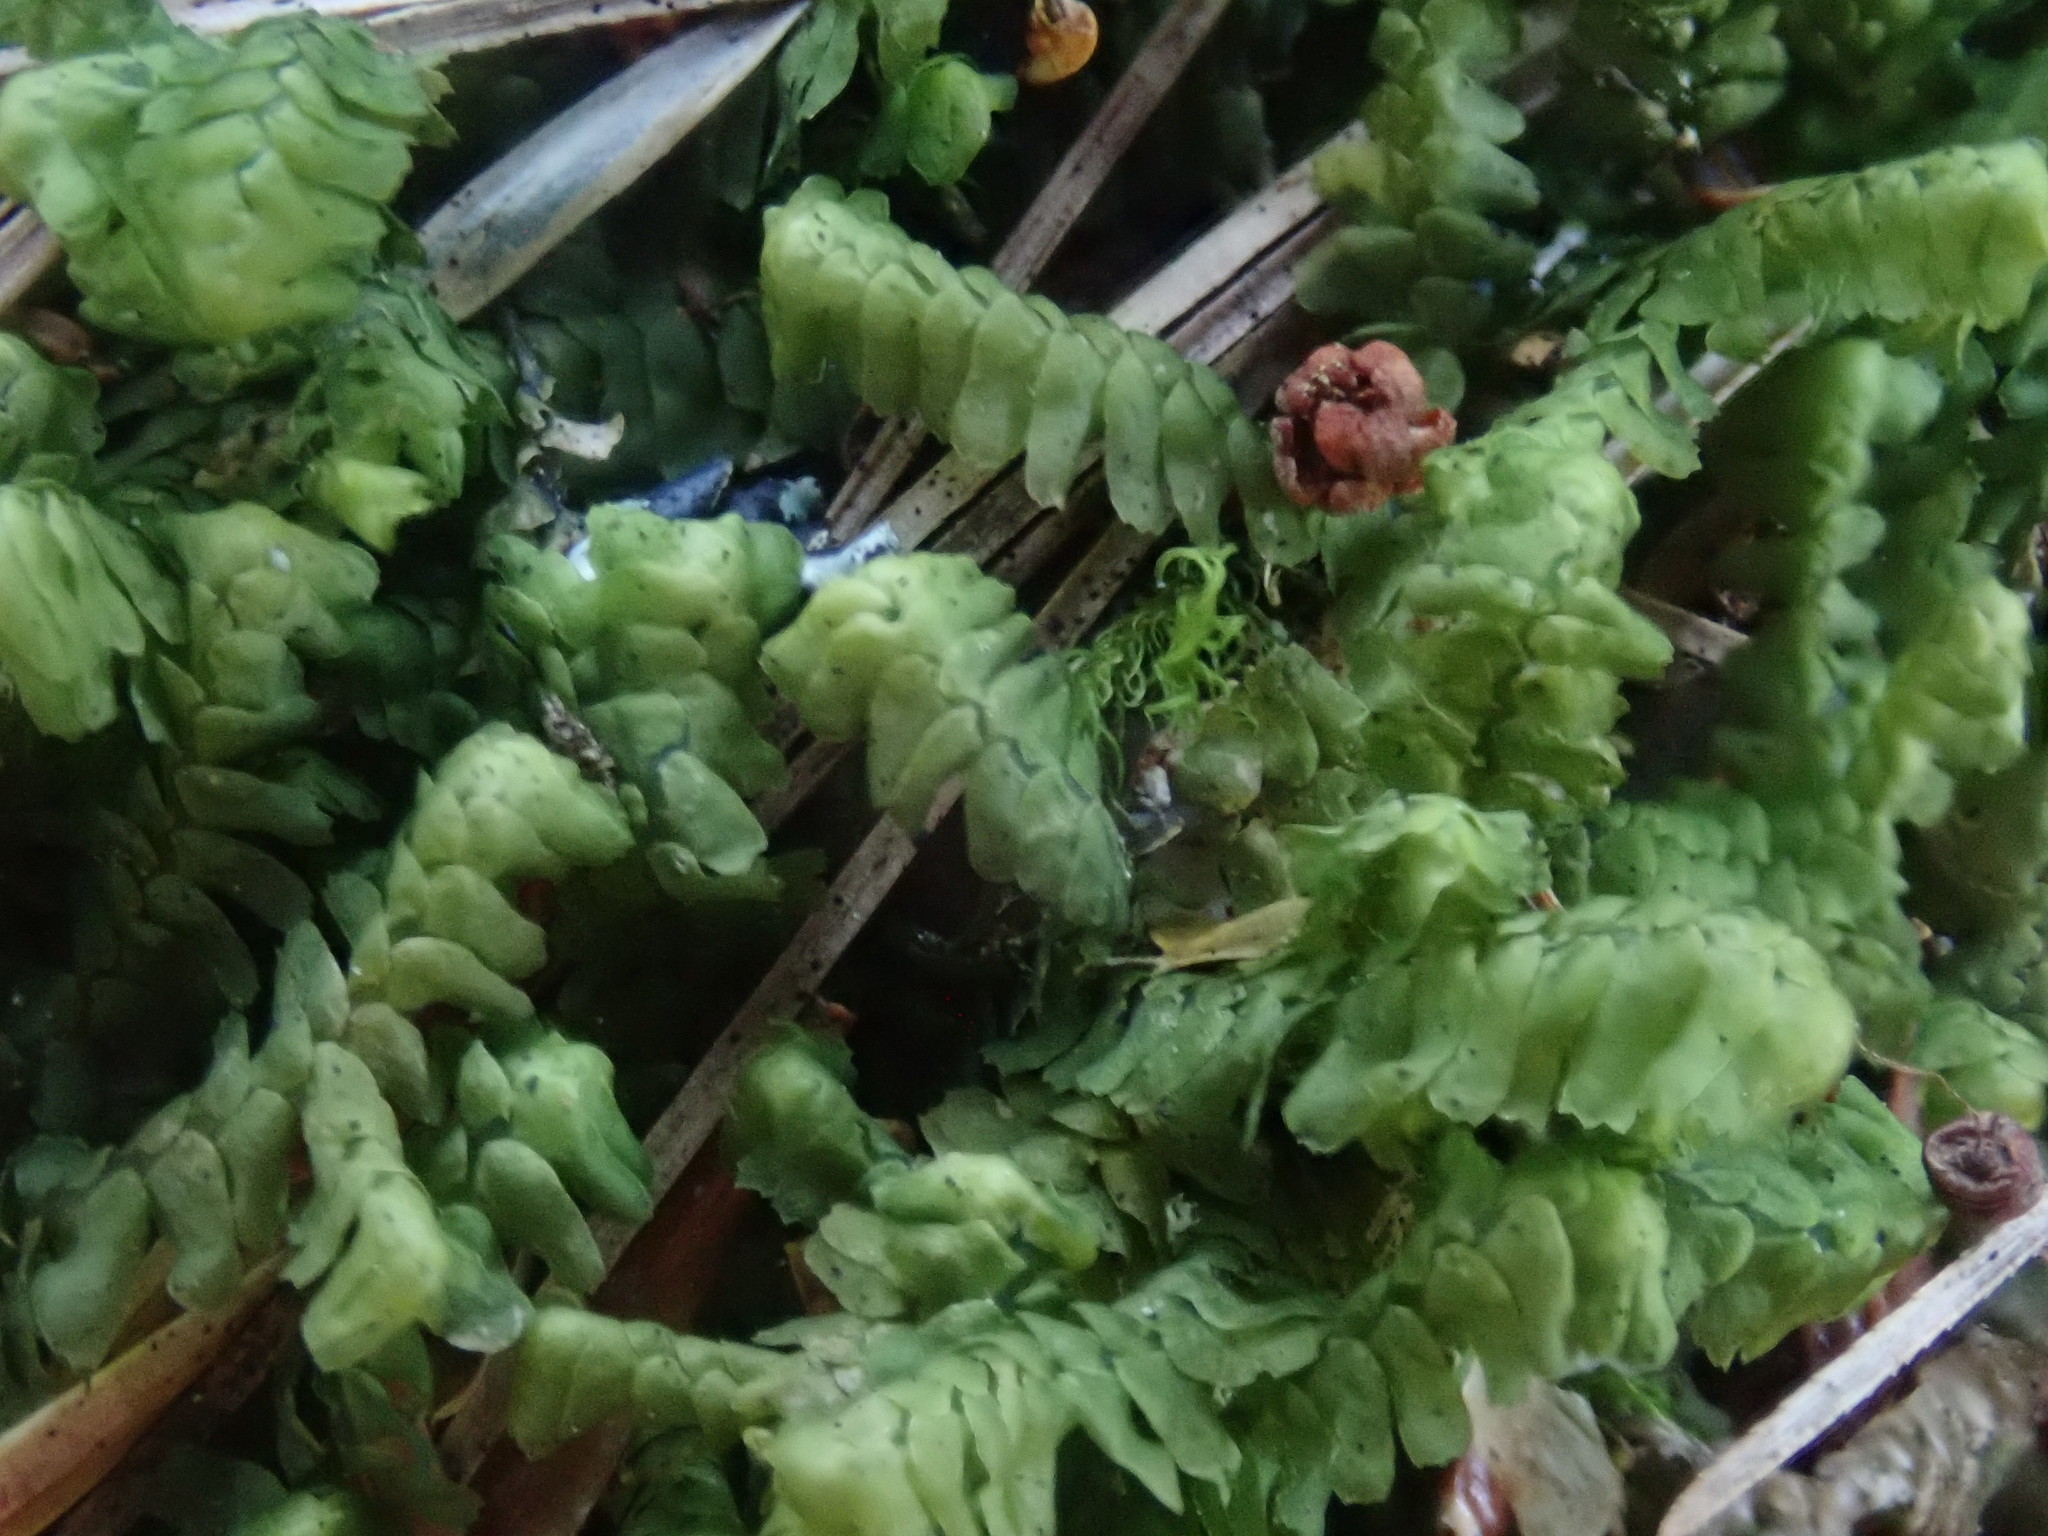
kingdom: Plantae
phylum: Marchantiophyta
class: Jungermanniopsida
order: Jungermanniales
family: Lepidoziaceae
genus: Bazzania
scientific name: Bazzania trilobata
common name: Three-lobed whipwort
